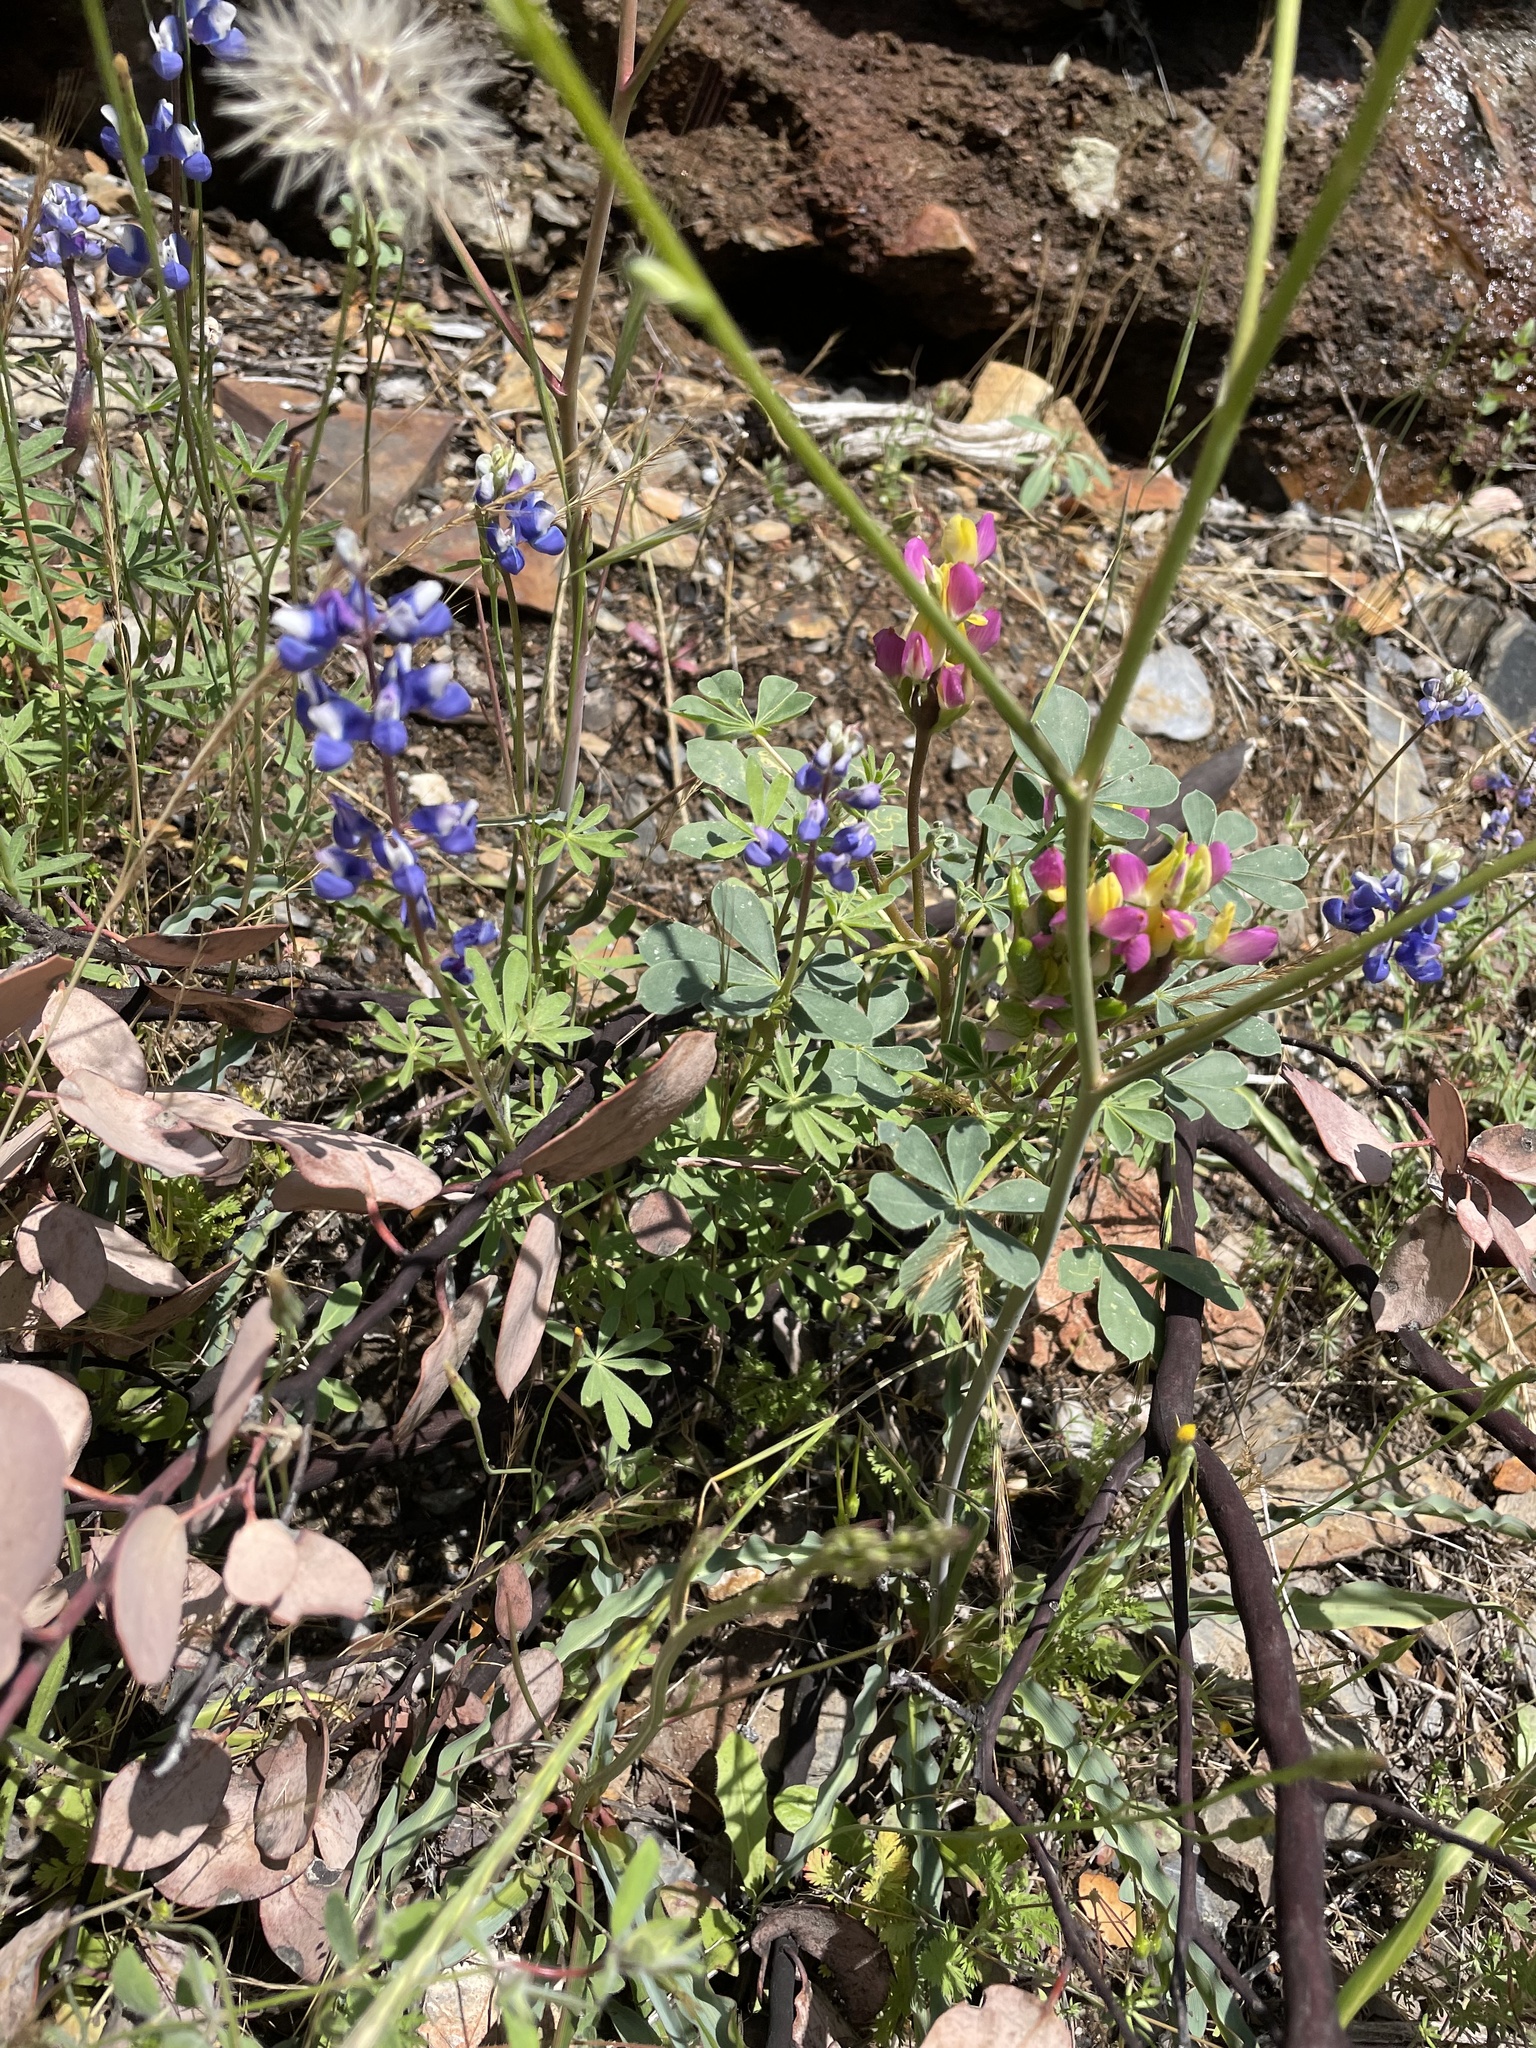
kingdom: Plantae
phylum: Tracheophyta
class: Magnoliopsida
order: Fabales
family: Fabaceae
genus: Lupinus
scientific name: Lupinus stiversii
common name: Harlequin lupine
